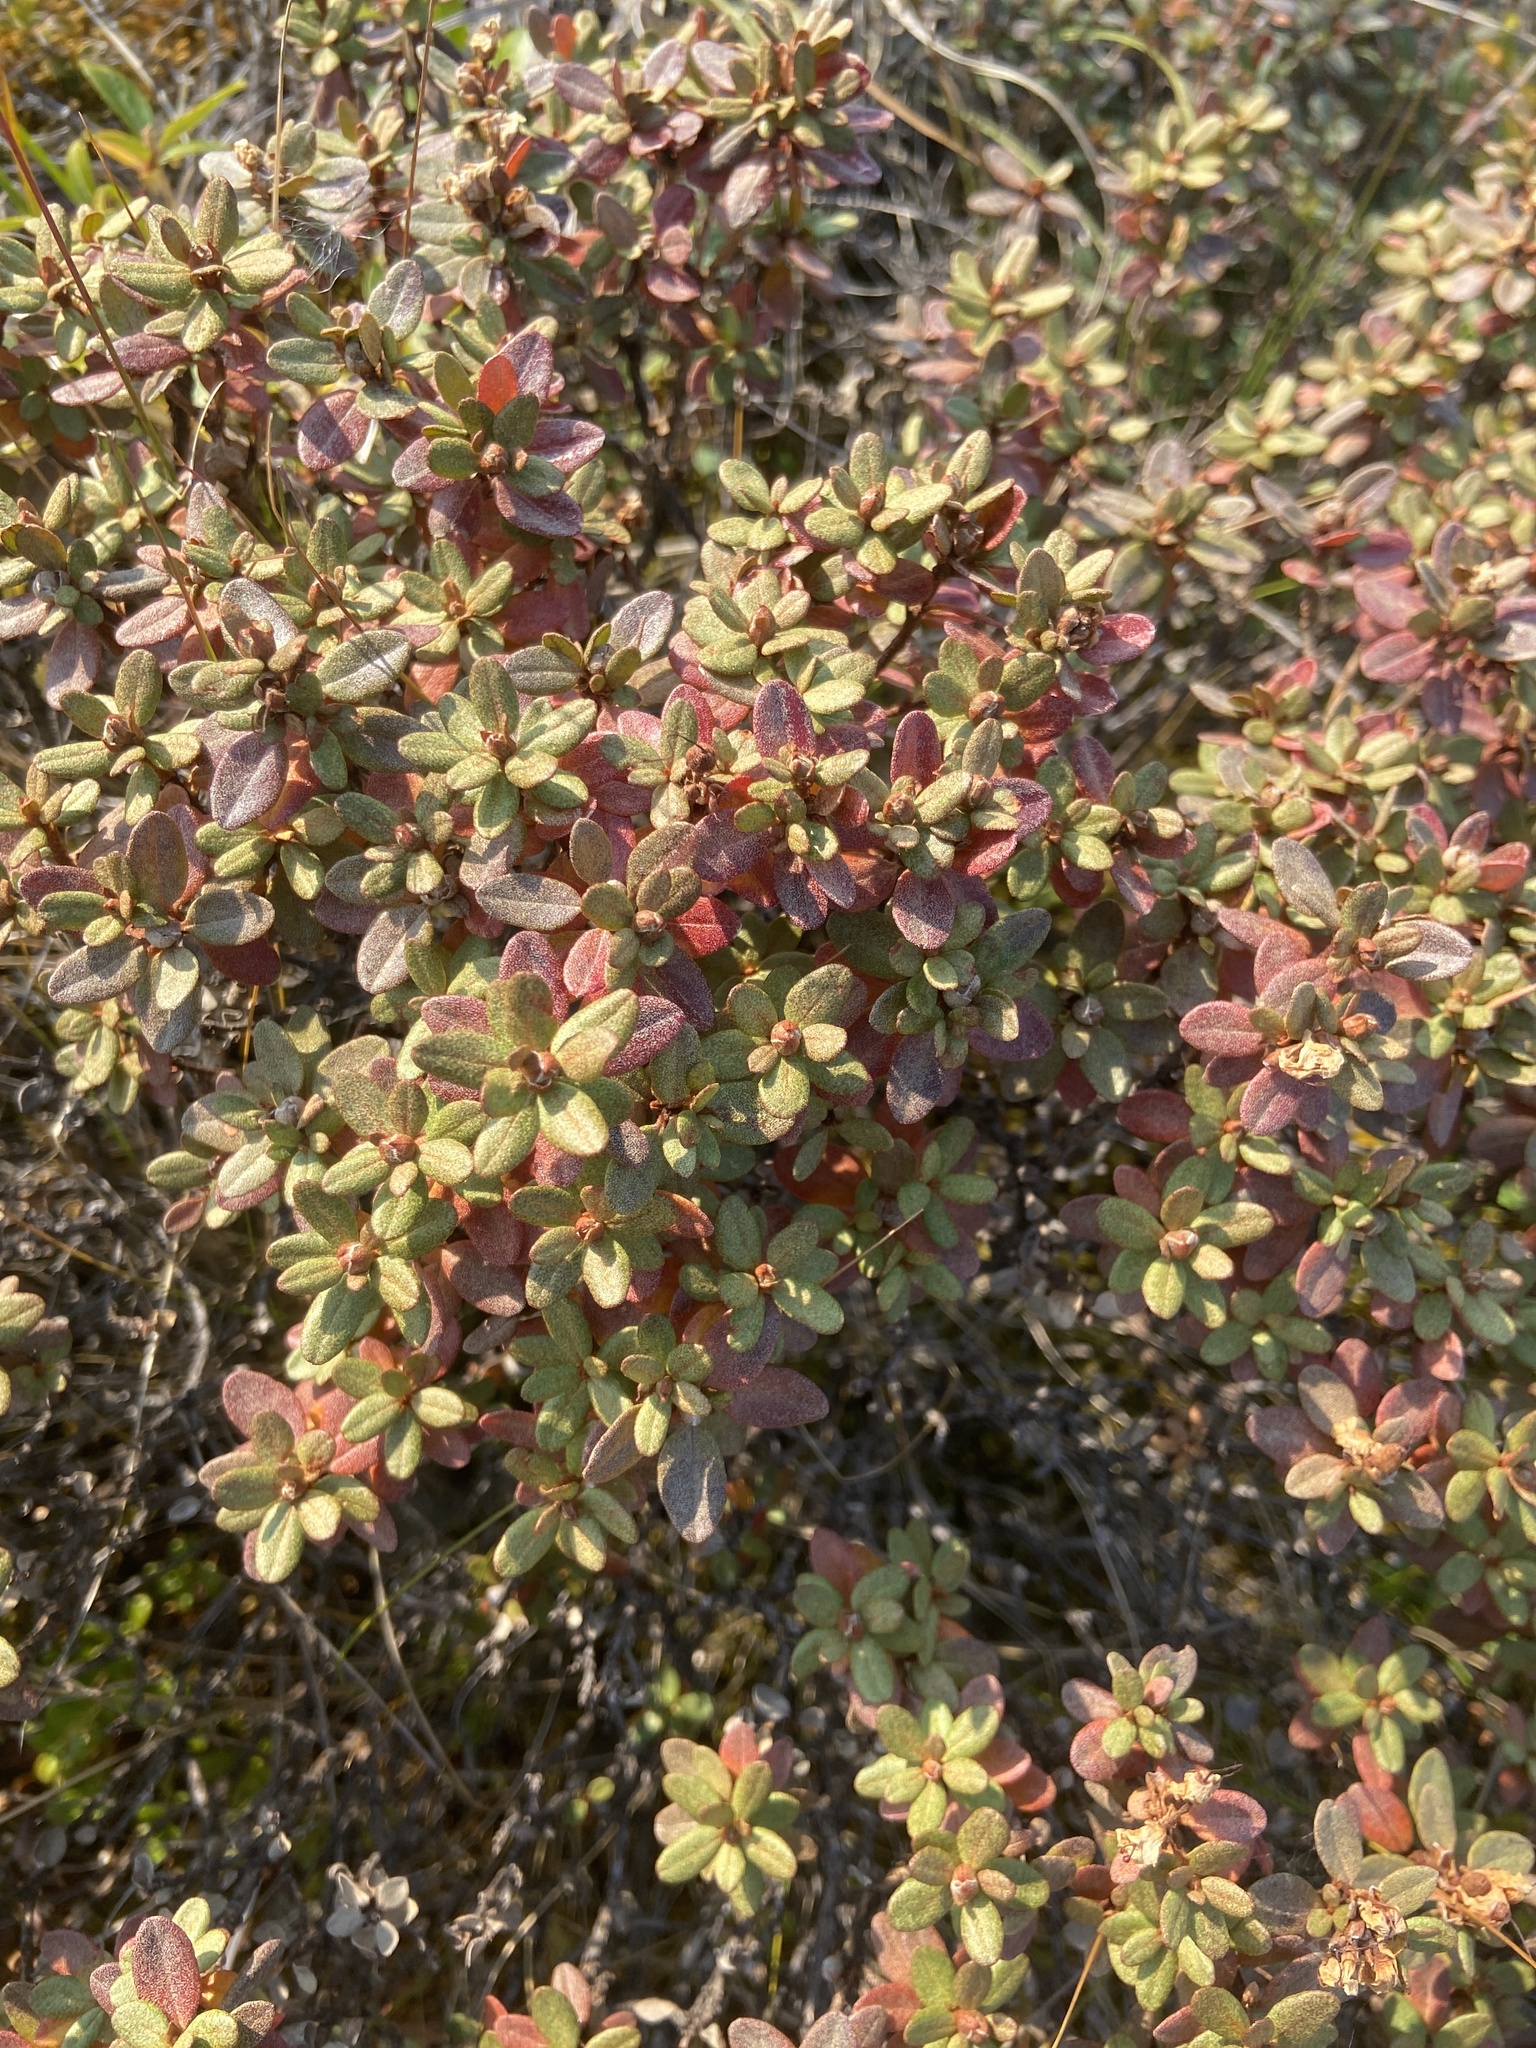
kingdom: Plantae
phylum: Tracheophyta
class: Magnoliopsida
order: Ericales
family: Ericaceae
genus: Rhododendron
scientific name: Rhododendron parvifolium
